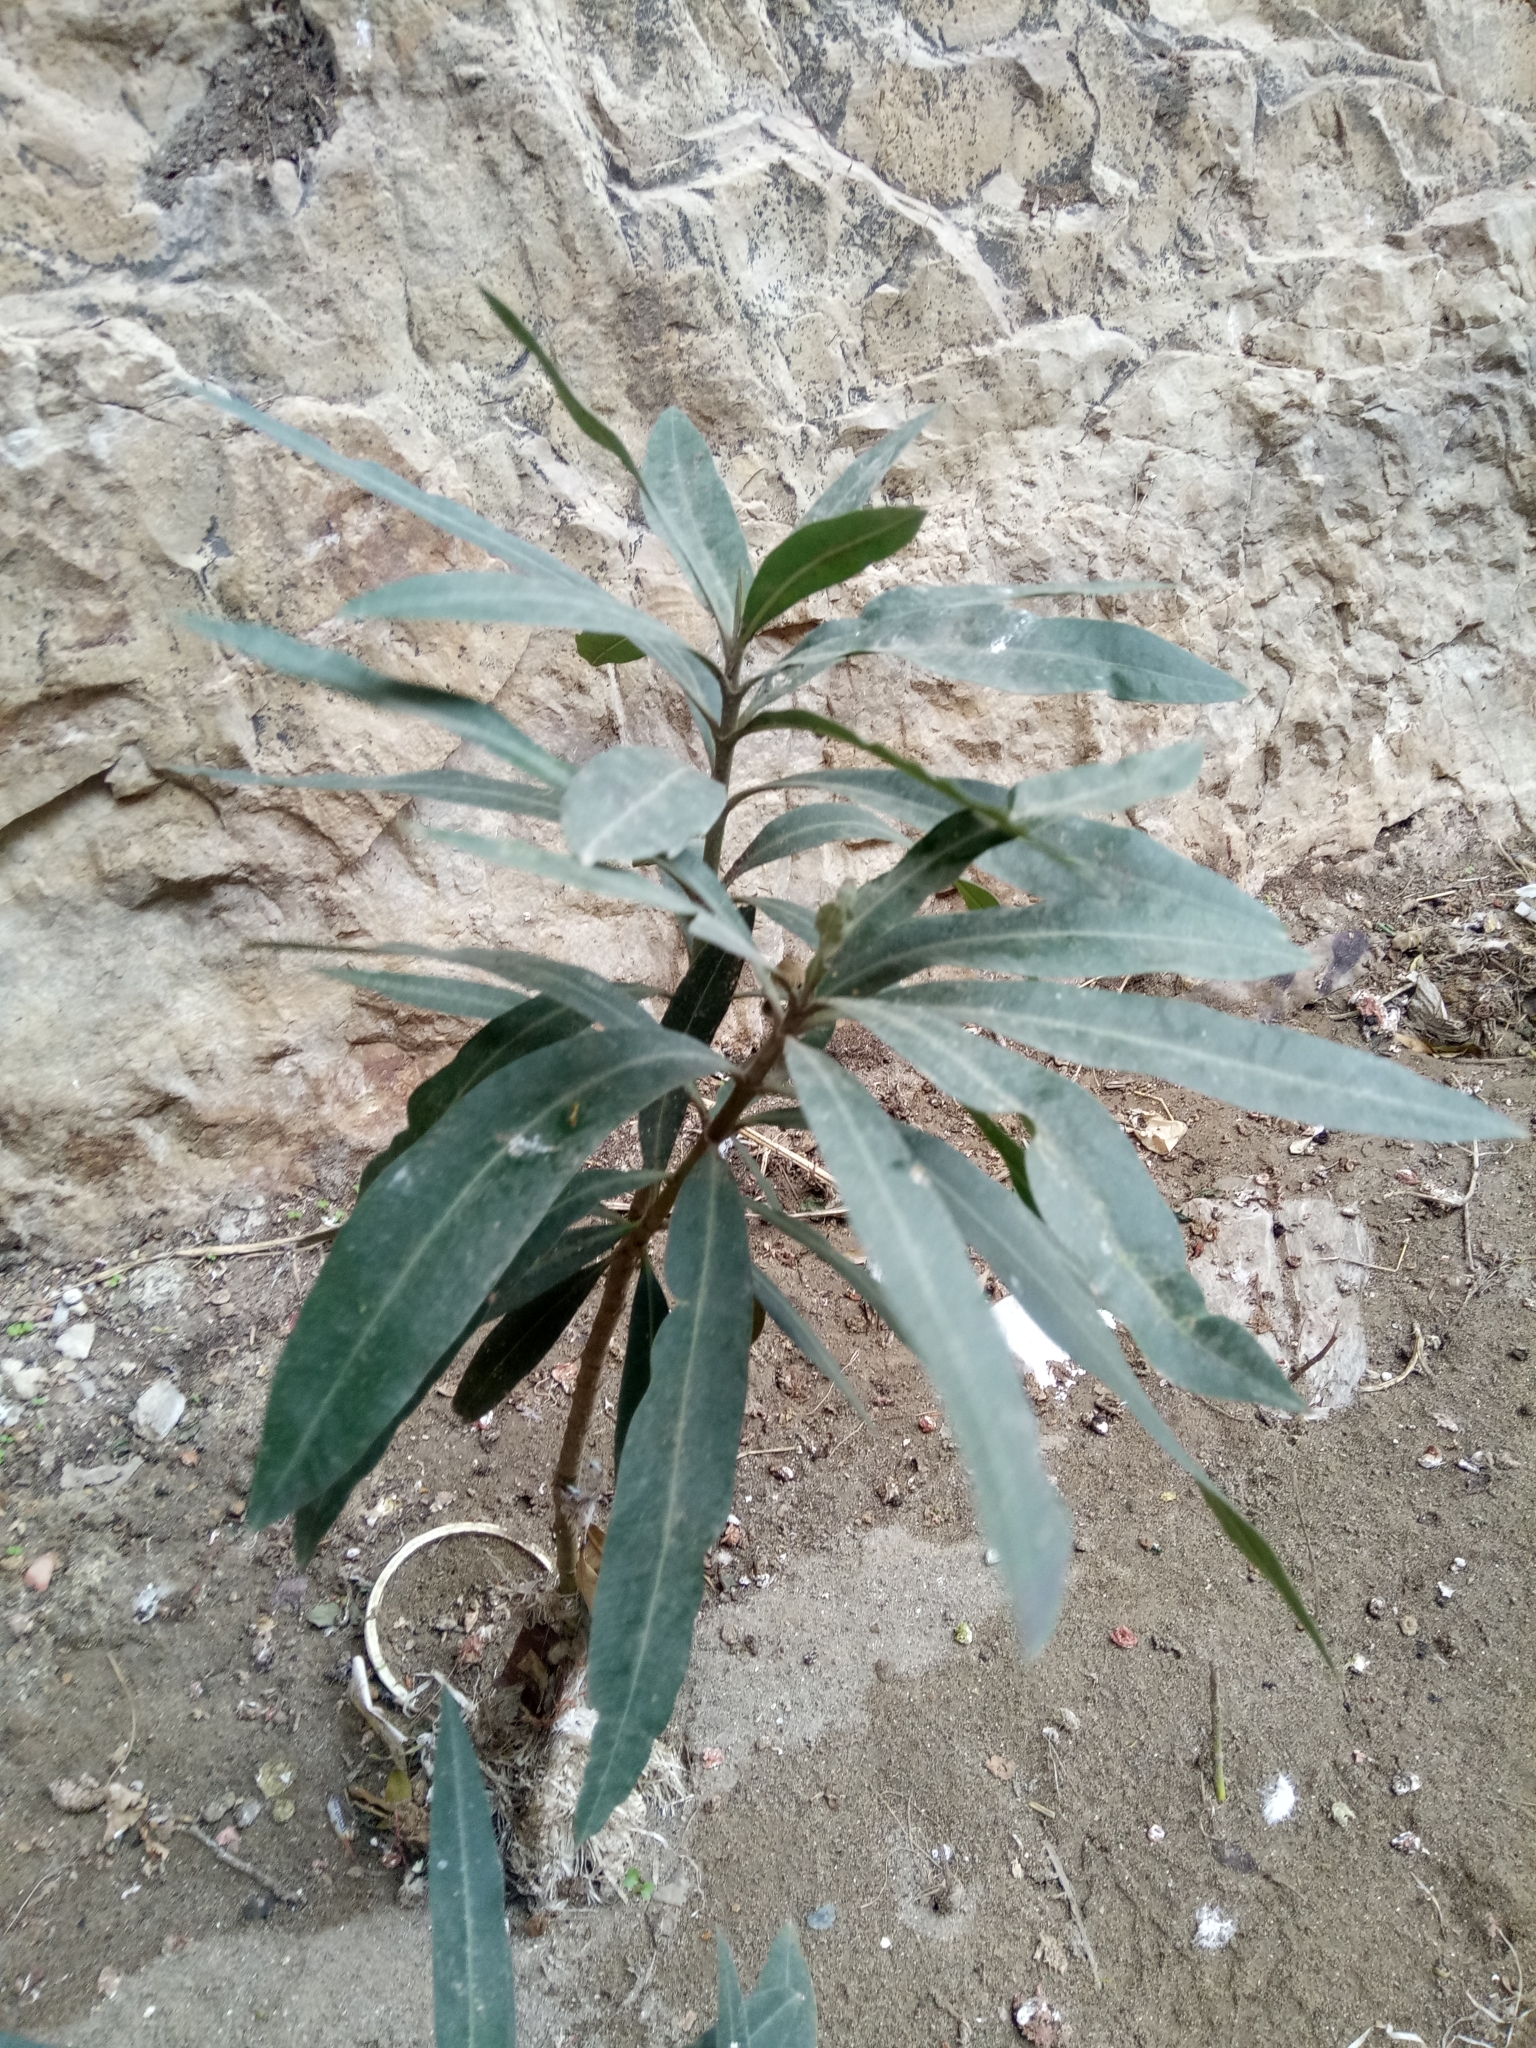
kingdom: Plantae
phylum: Tracheophyta
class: Magnoliopsida
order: Gentianales
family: Apocynaceae
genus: Nerium
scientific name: Nerium oleander
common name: Oleander
